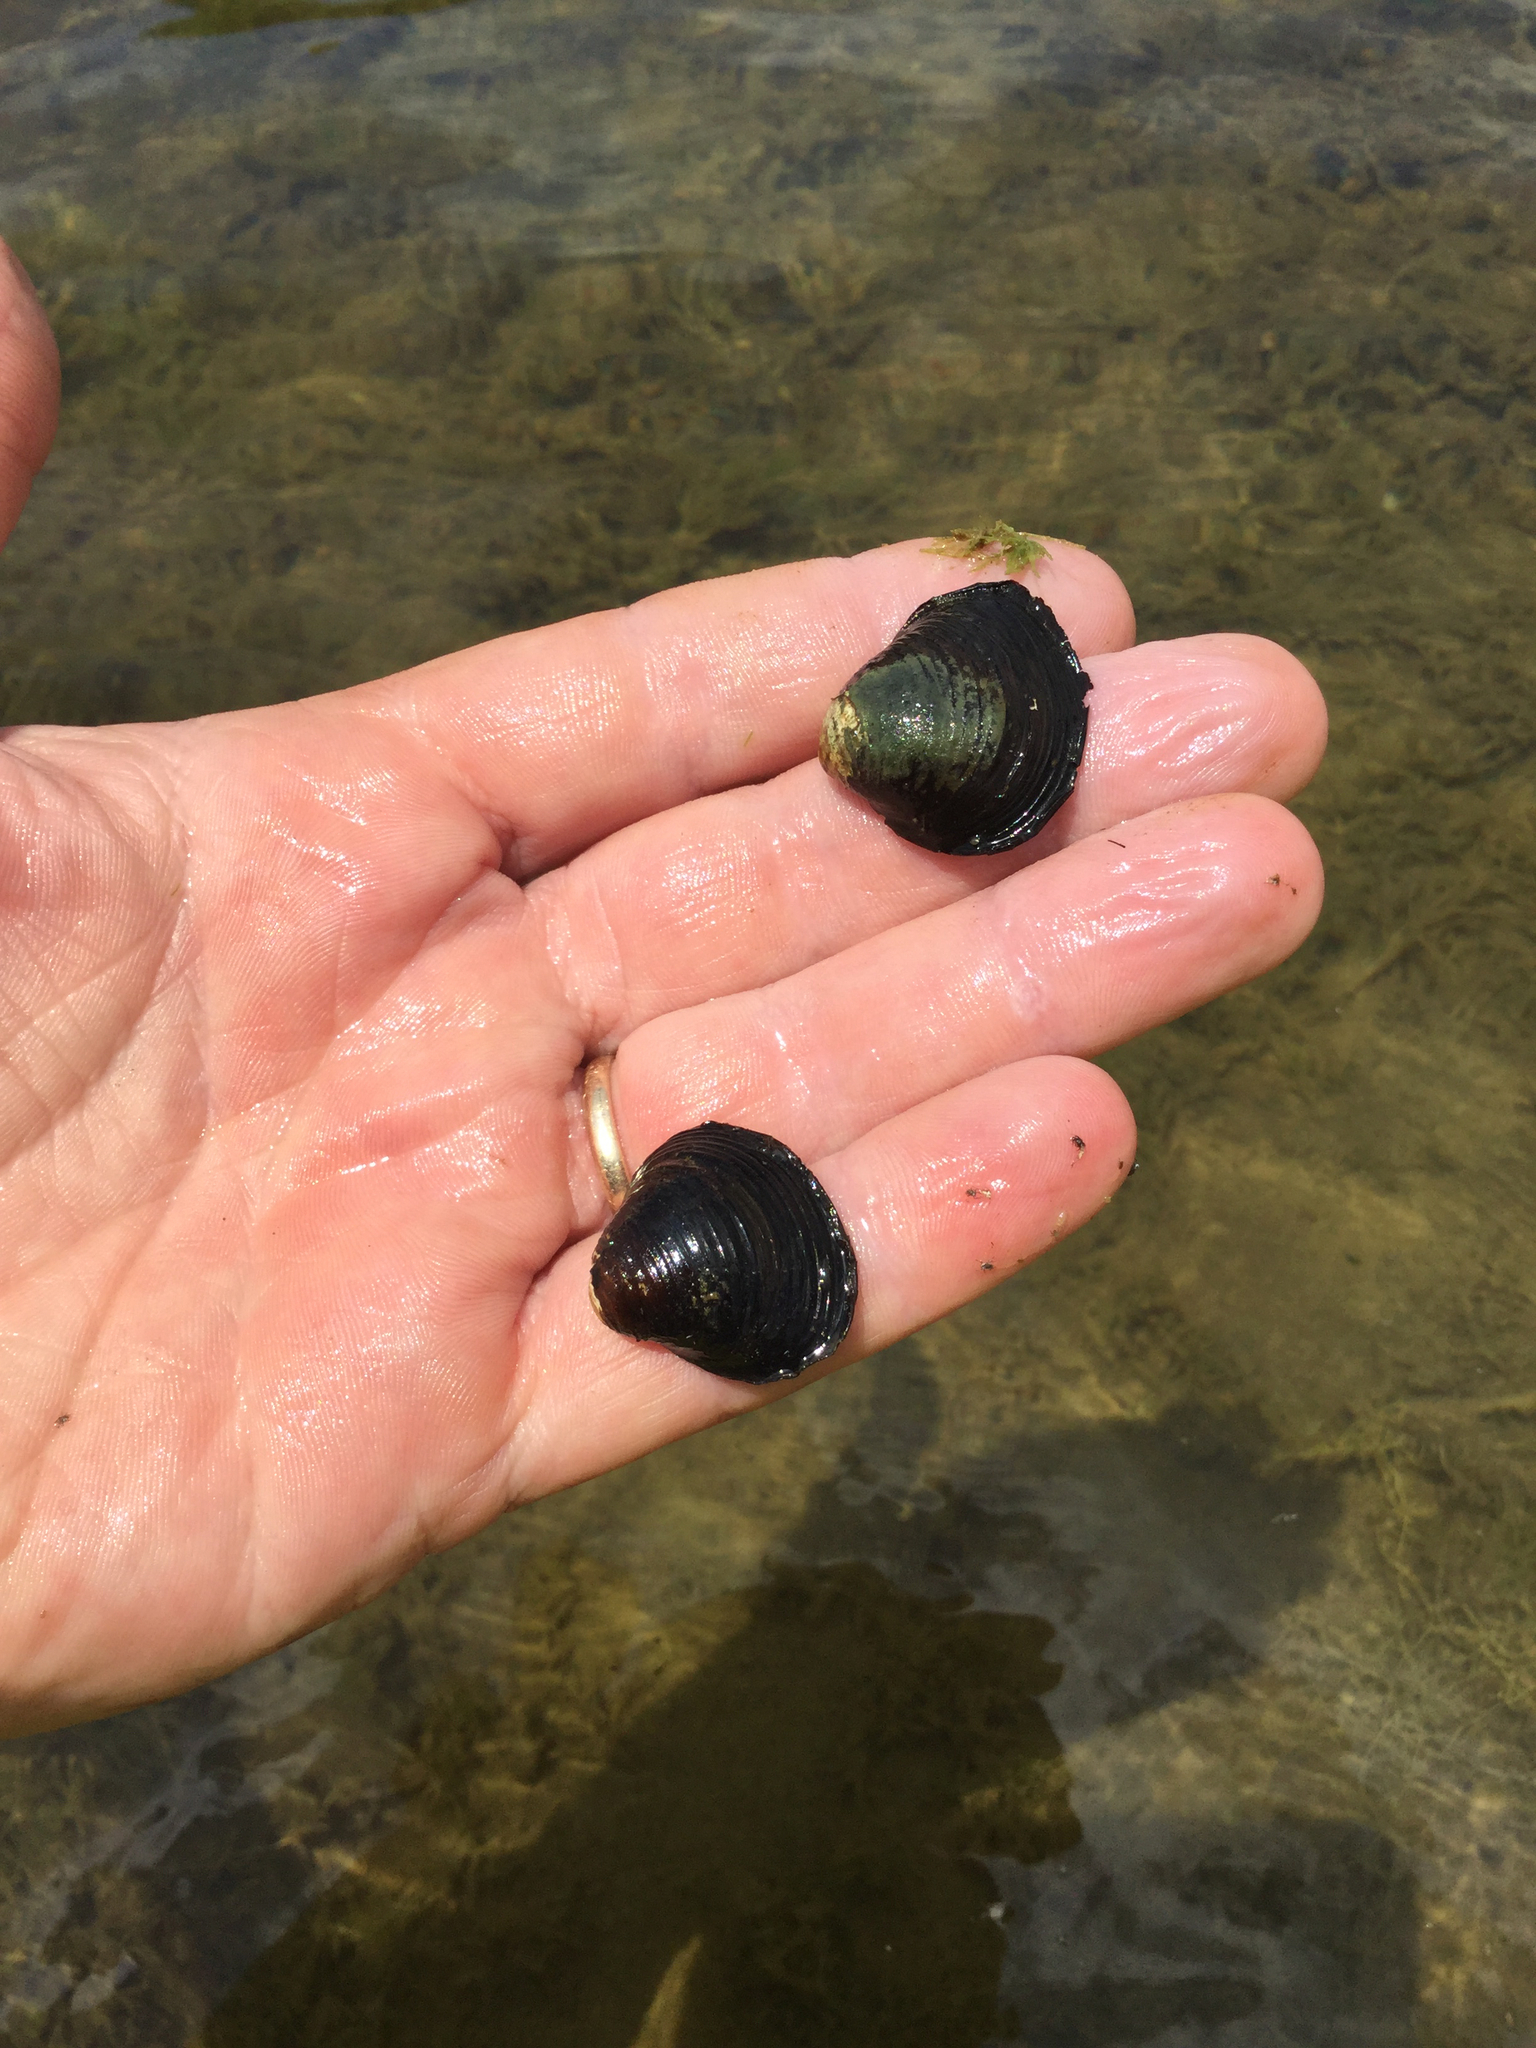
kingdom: Animalia
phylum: Mollusca
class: Bivalvia
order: Venerida
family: Cyrenidae
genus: Corbicula
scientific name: Corbicula fluminea
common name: Asian clam
